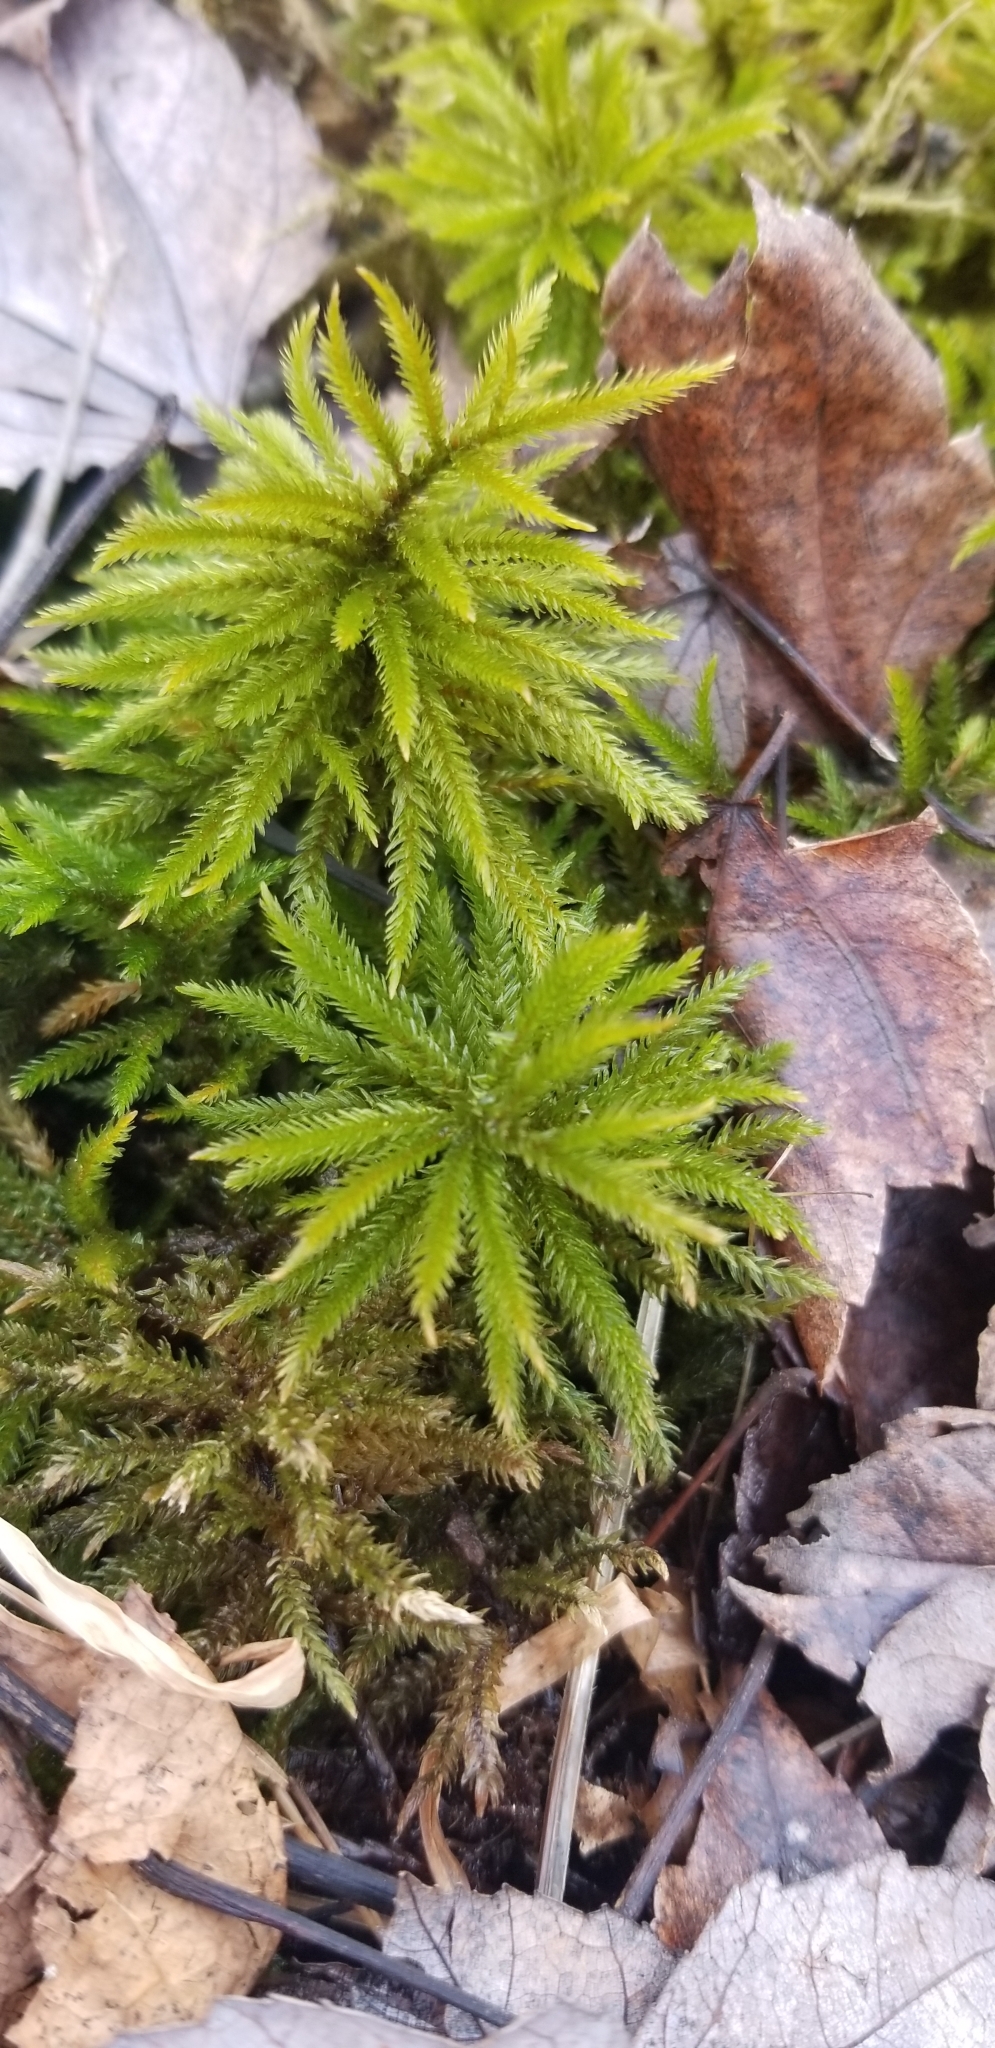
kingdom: Plantae
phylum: Bryophyta
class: Bryopsida
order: Hypnales
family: Climaciaceae
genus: Climacium
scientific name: Climacium americanum
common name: American tree moss
